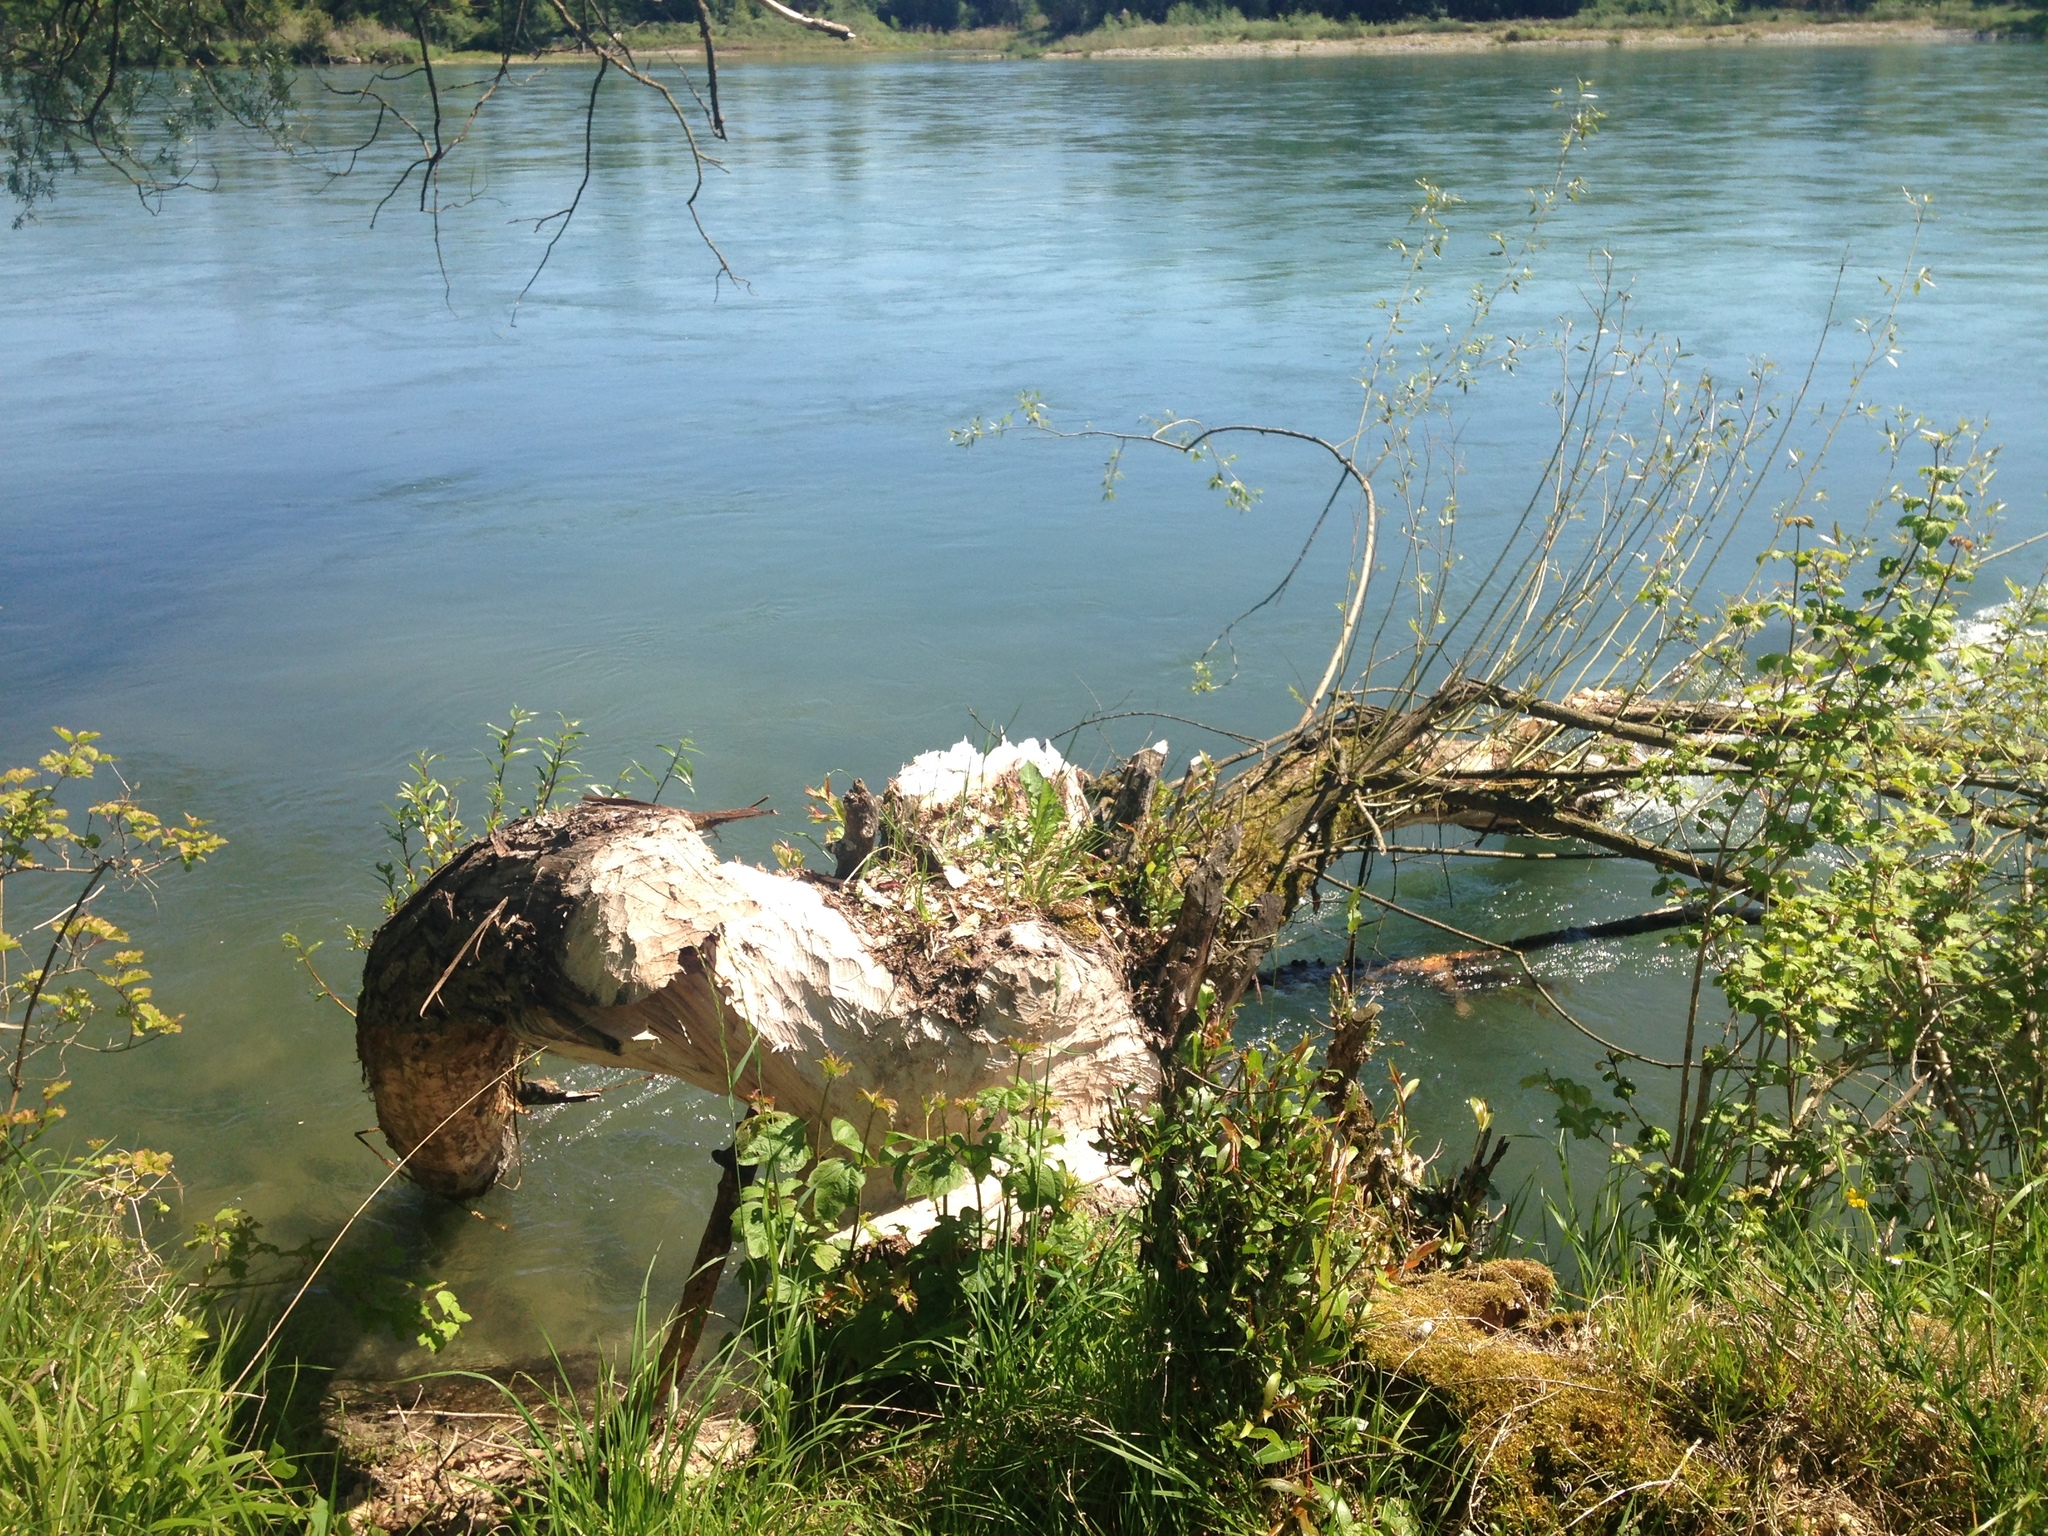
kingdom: Animalia
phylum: Chordata
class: Mammalia
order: Rodentia
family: Castoridae
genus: Castor
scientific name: Castor fiber
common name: Eurasian beaver
